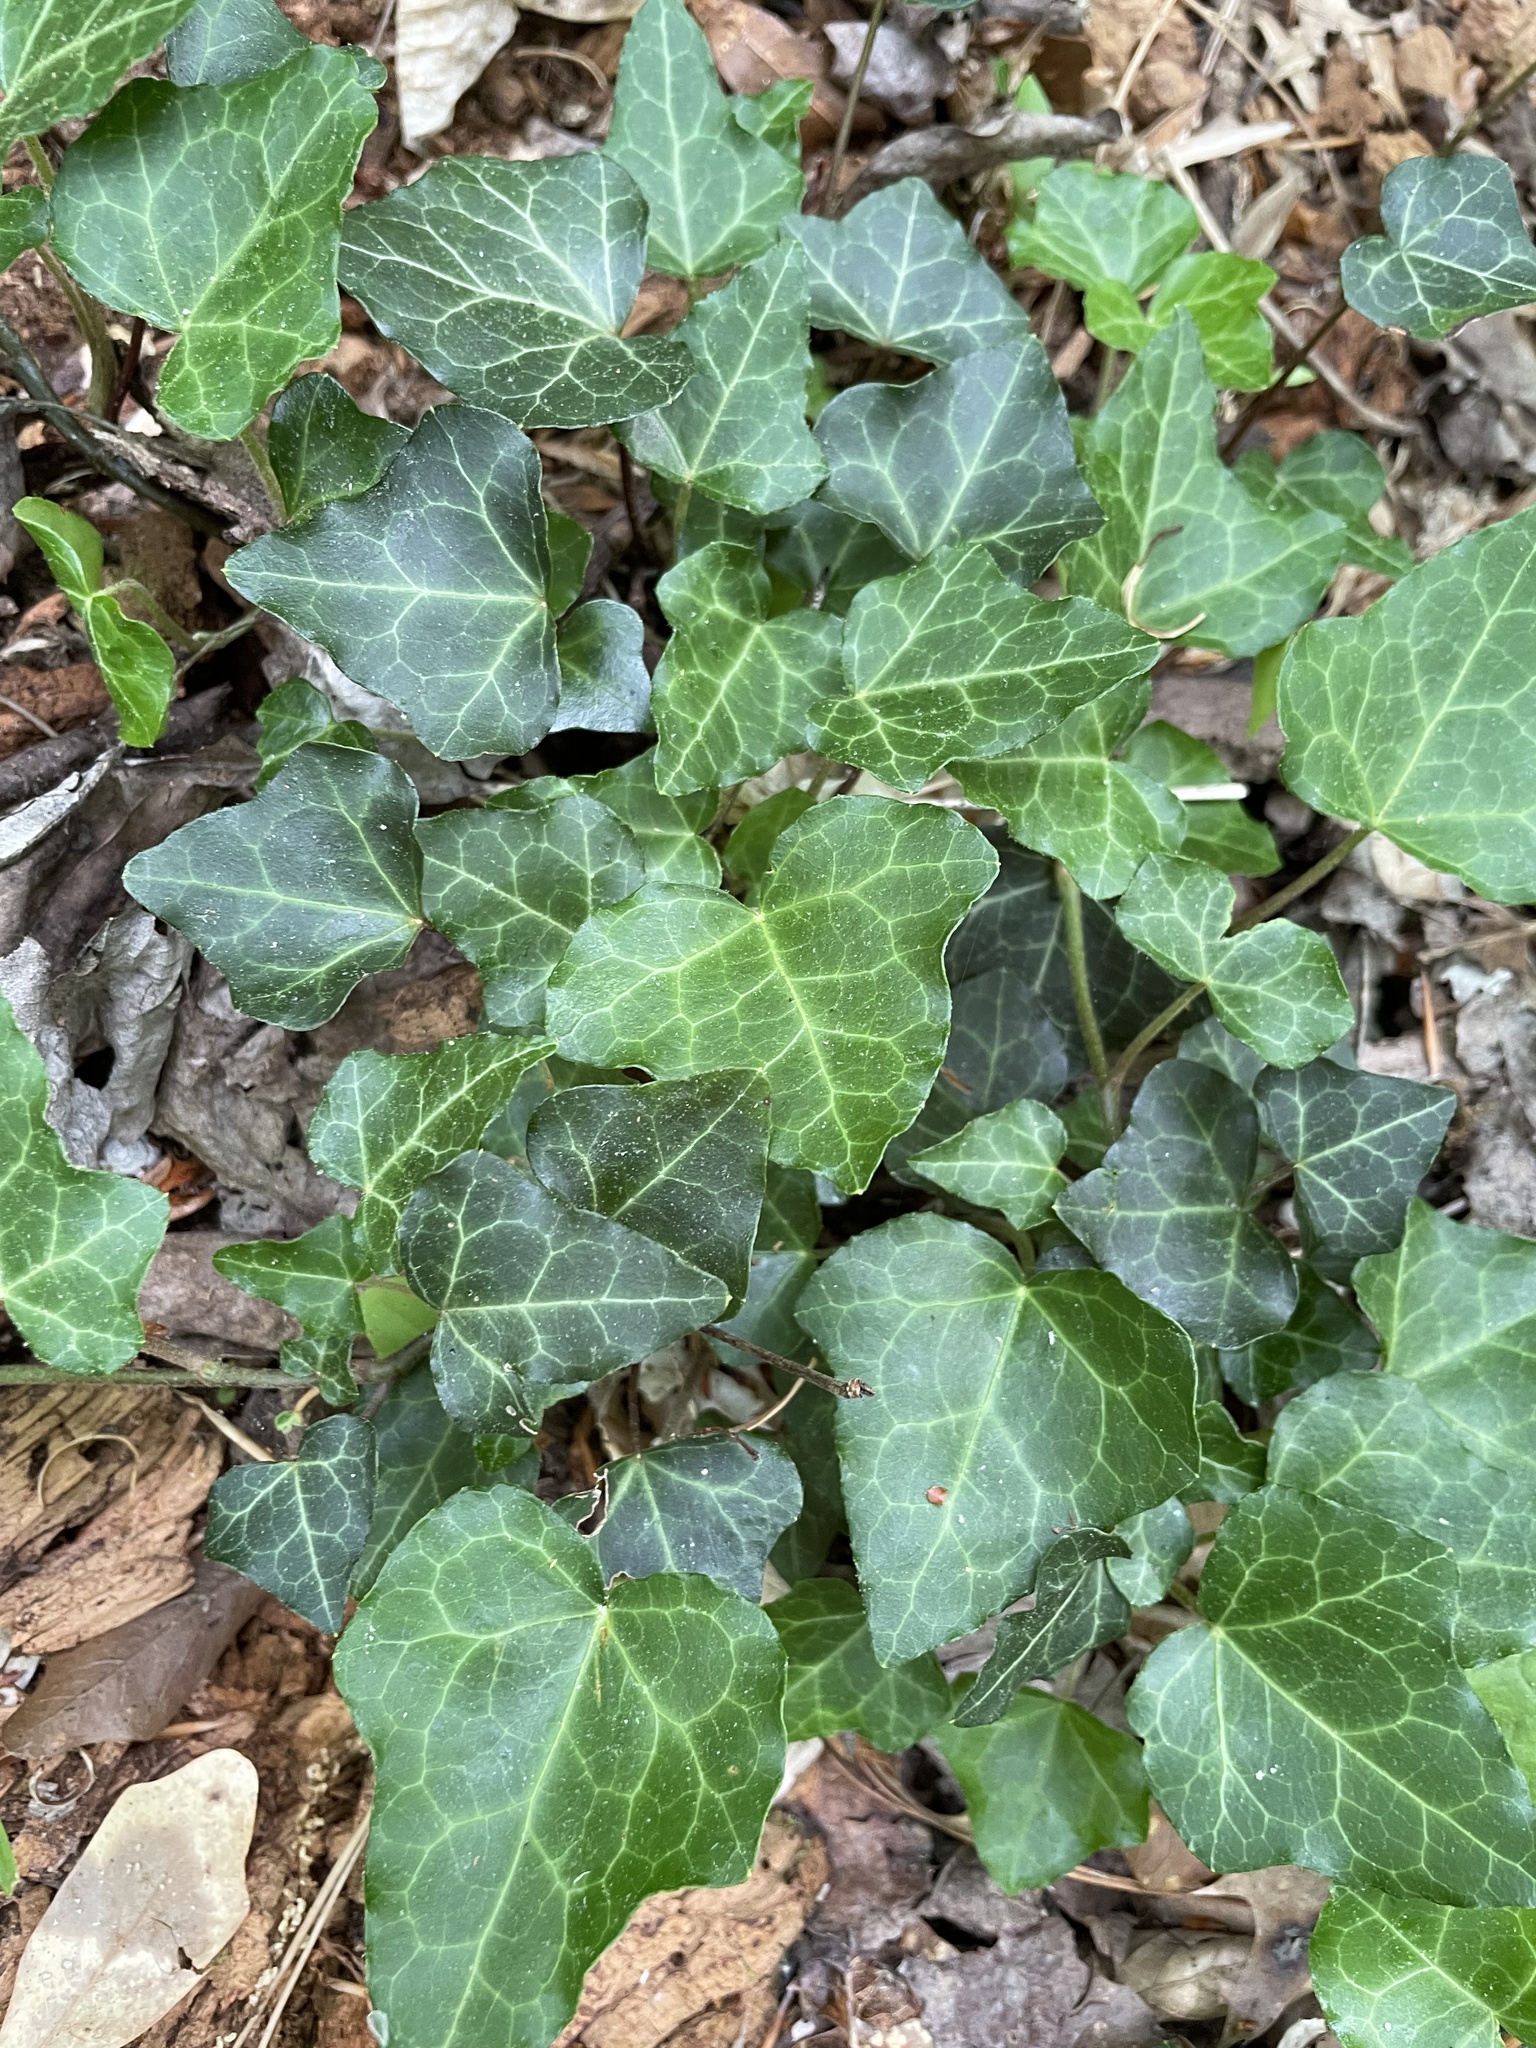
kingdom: Plantae
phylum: Tracheophyta
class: Magnoliopsida
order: Apiales
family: Araliaceae
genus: Hedera
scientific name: Hedera helix
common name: Ivy
